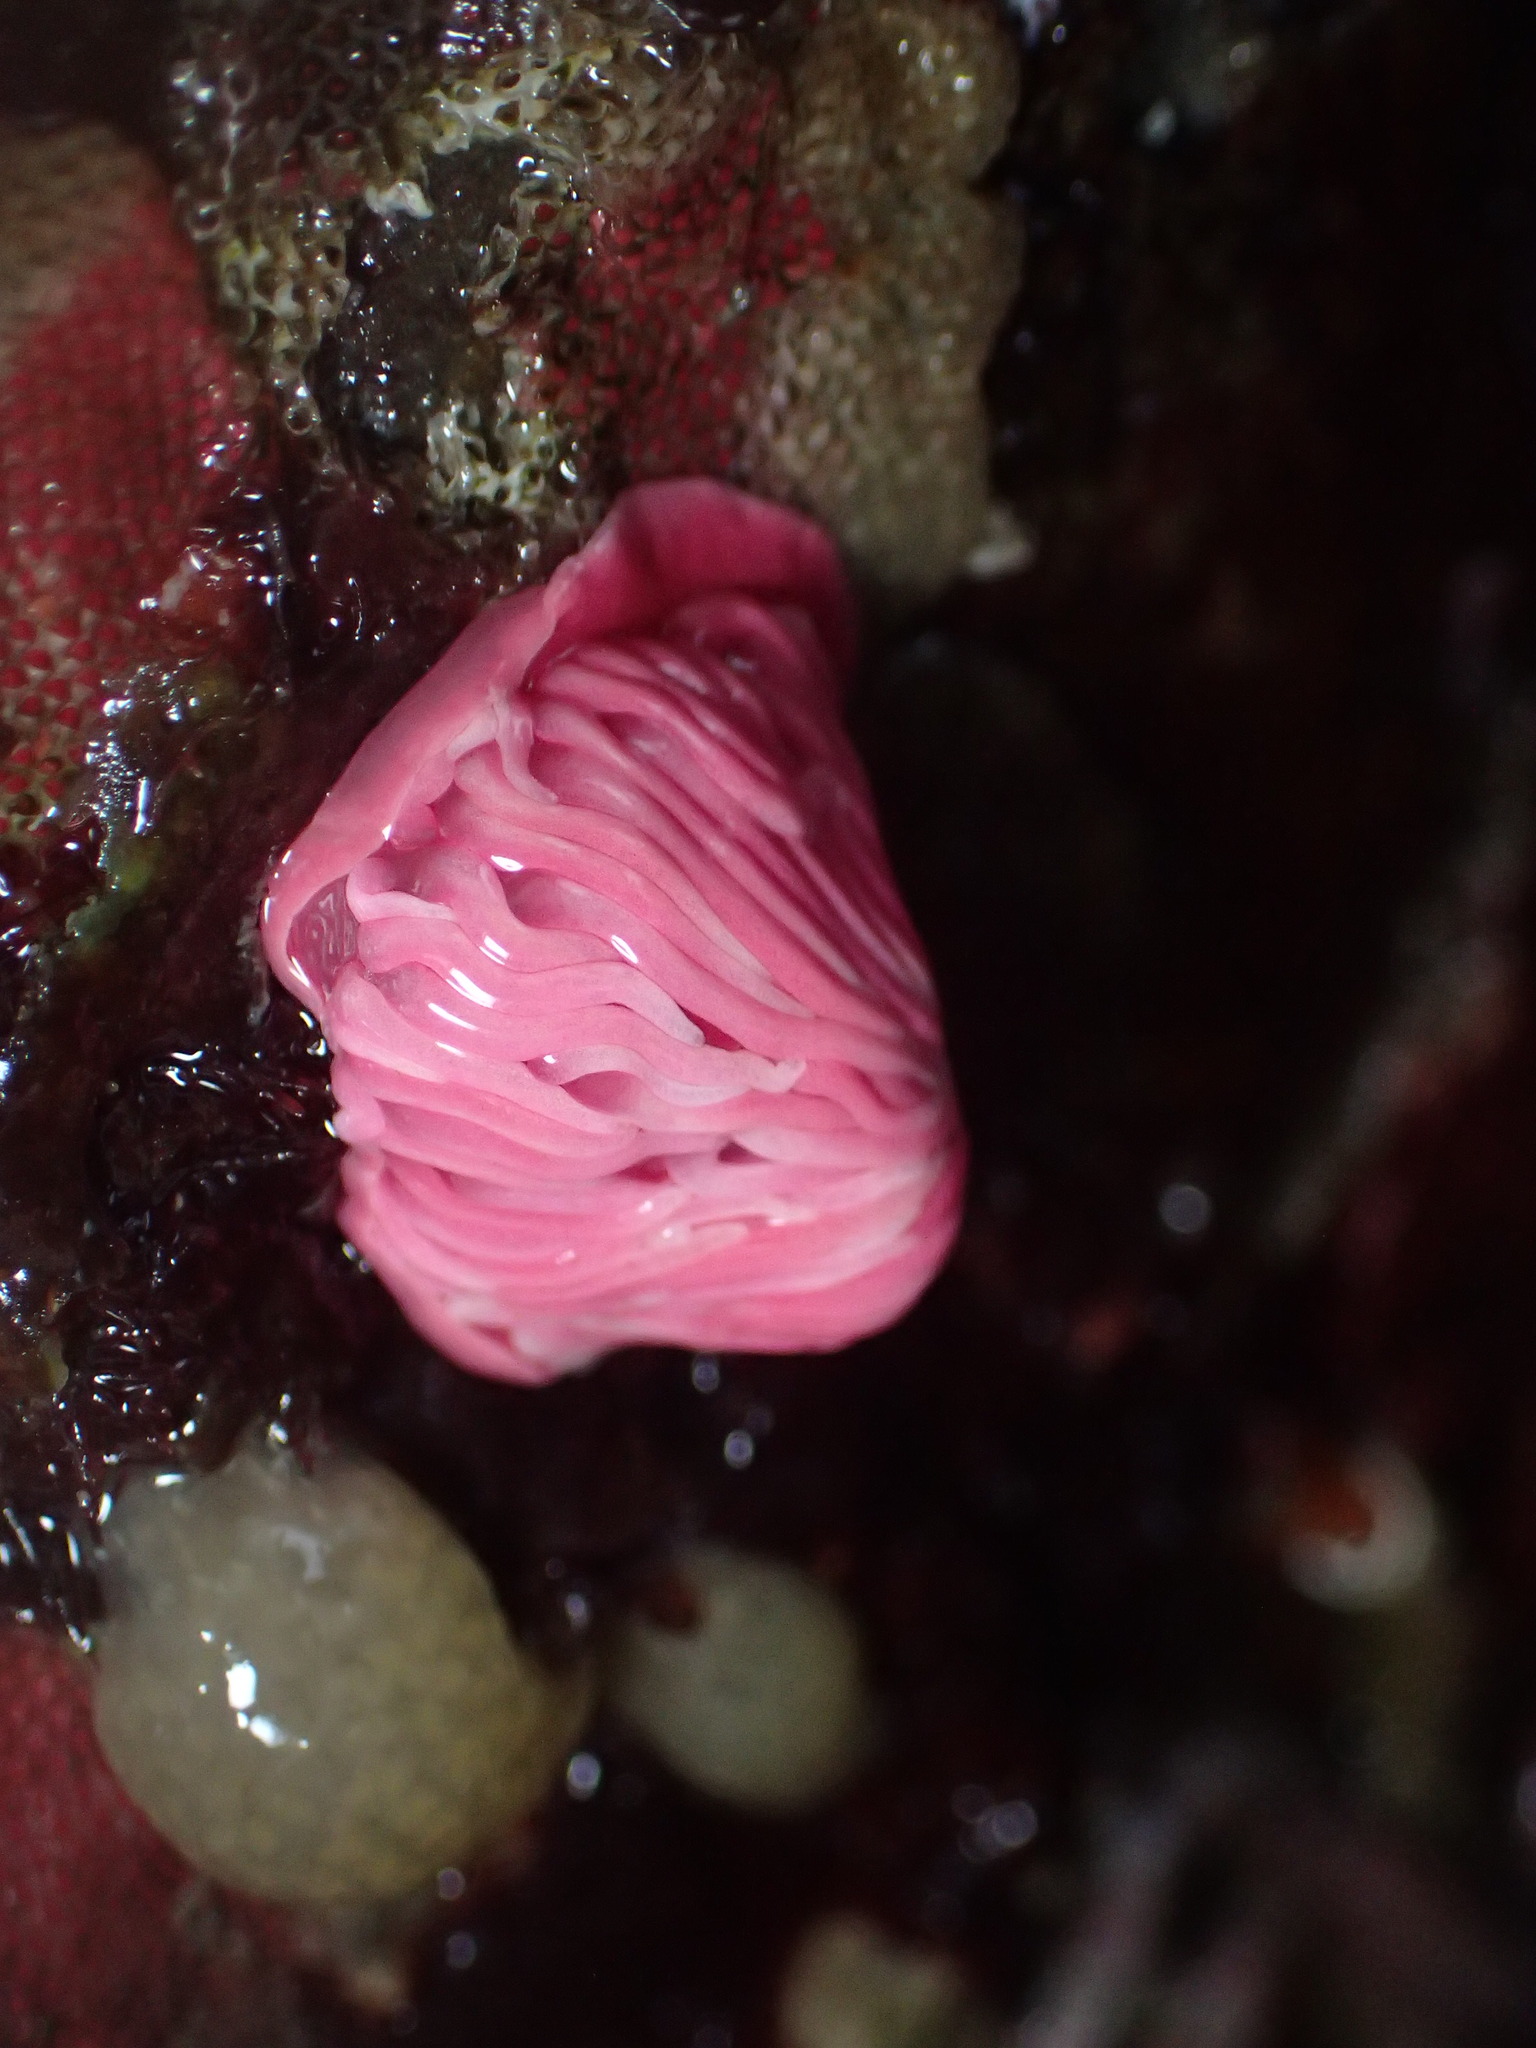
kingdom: Animalia
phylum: Mollusca
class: Gastropoda
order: Nudibranchia
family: Goniodorididae
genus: Okenia
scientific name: Okenia
